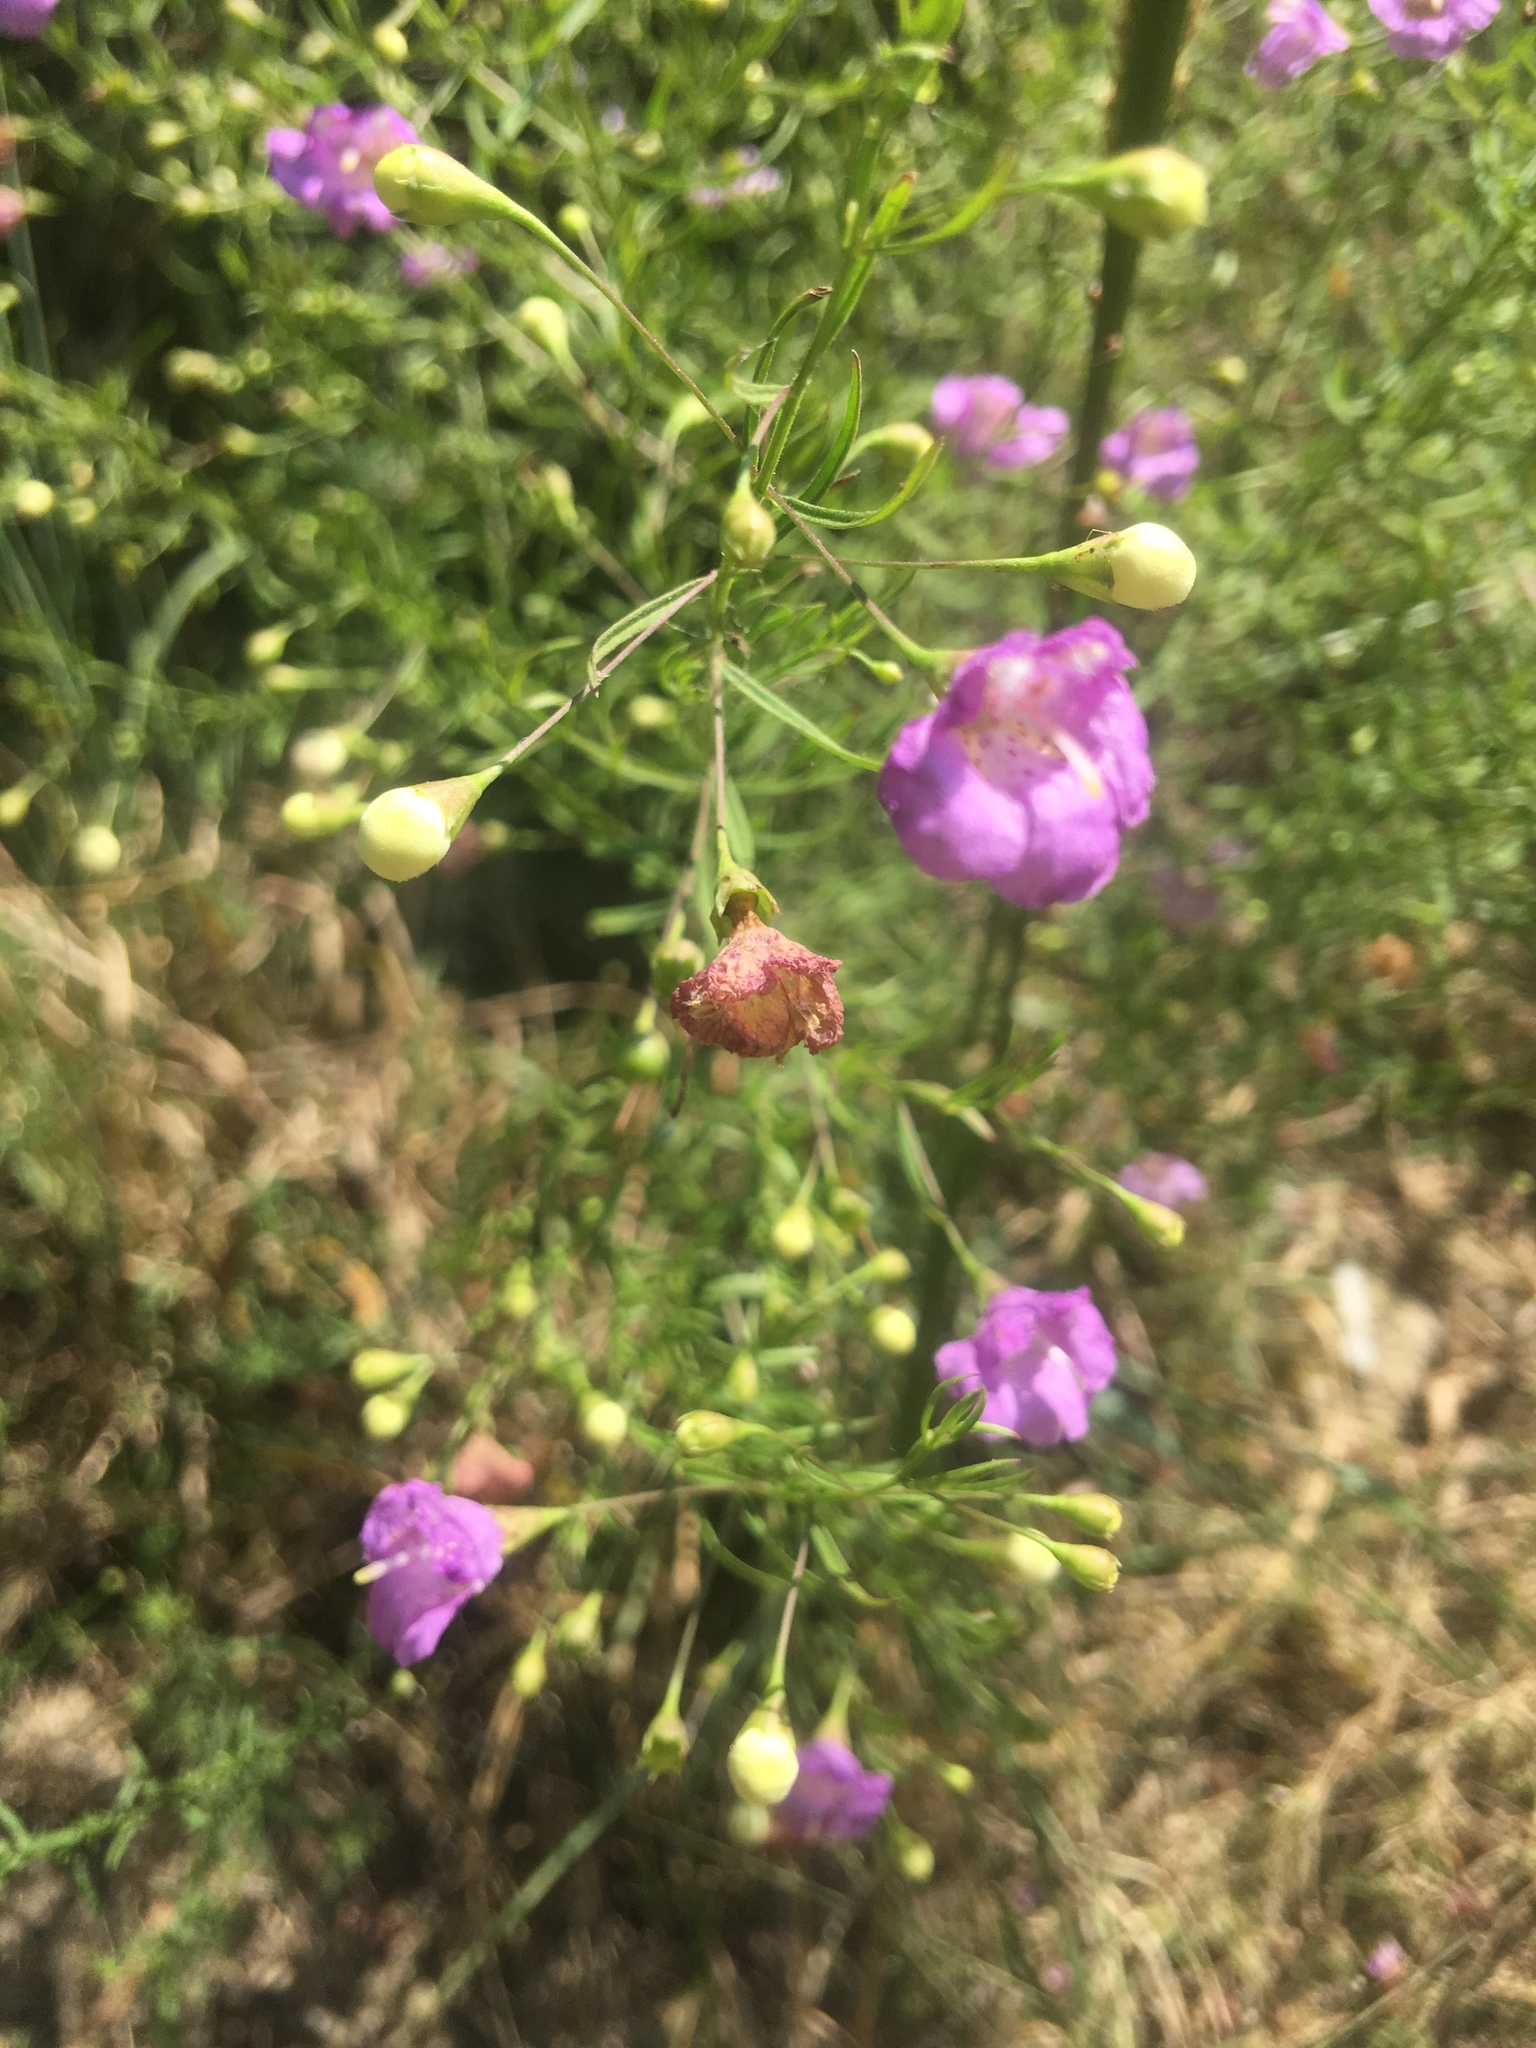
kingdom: Plantae
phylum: Tracheophyta
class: Magnoliopsida
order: Lamiales
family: Orobanchaceae
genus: Agalinis
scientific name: Agalinis tenuifolia
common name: Slender agalinis
